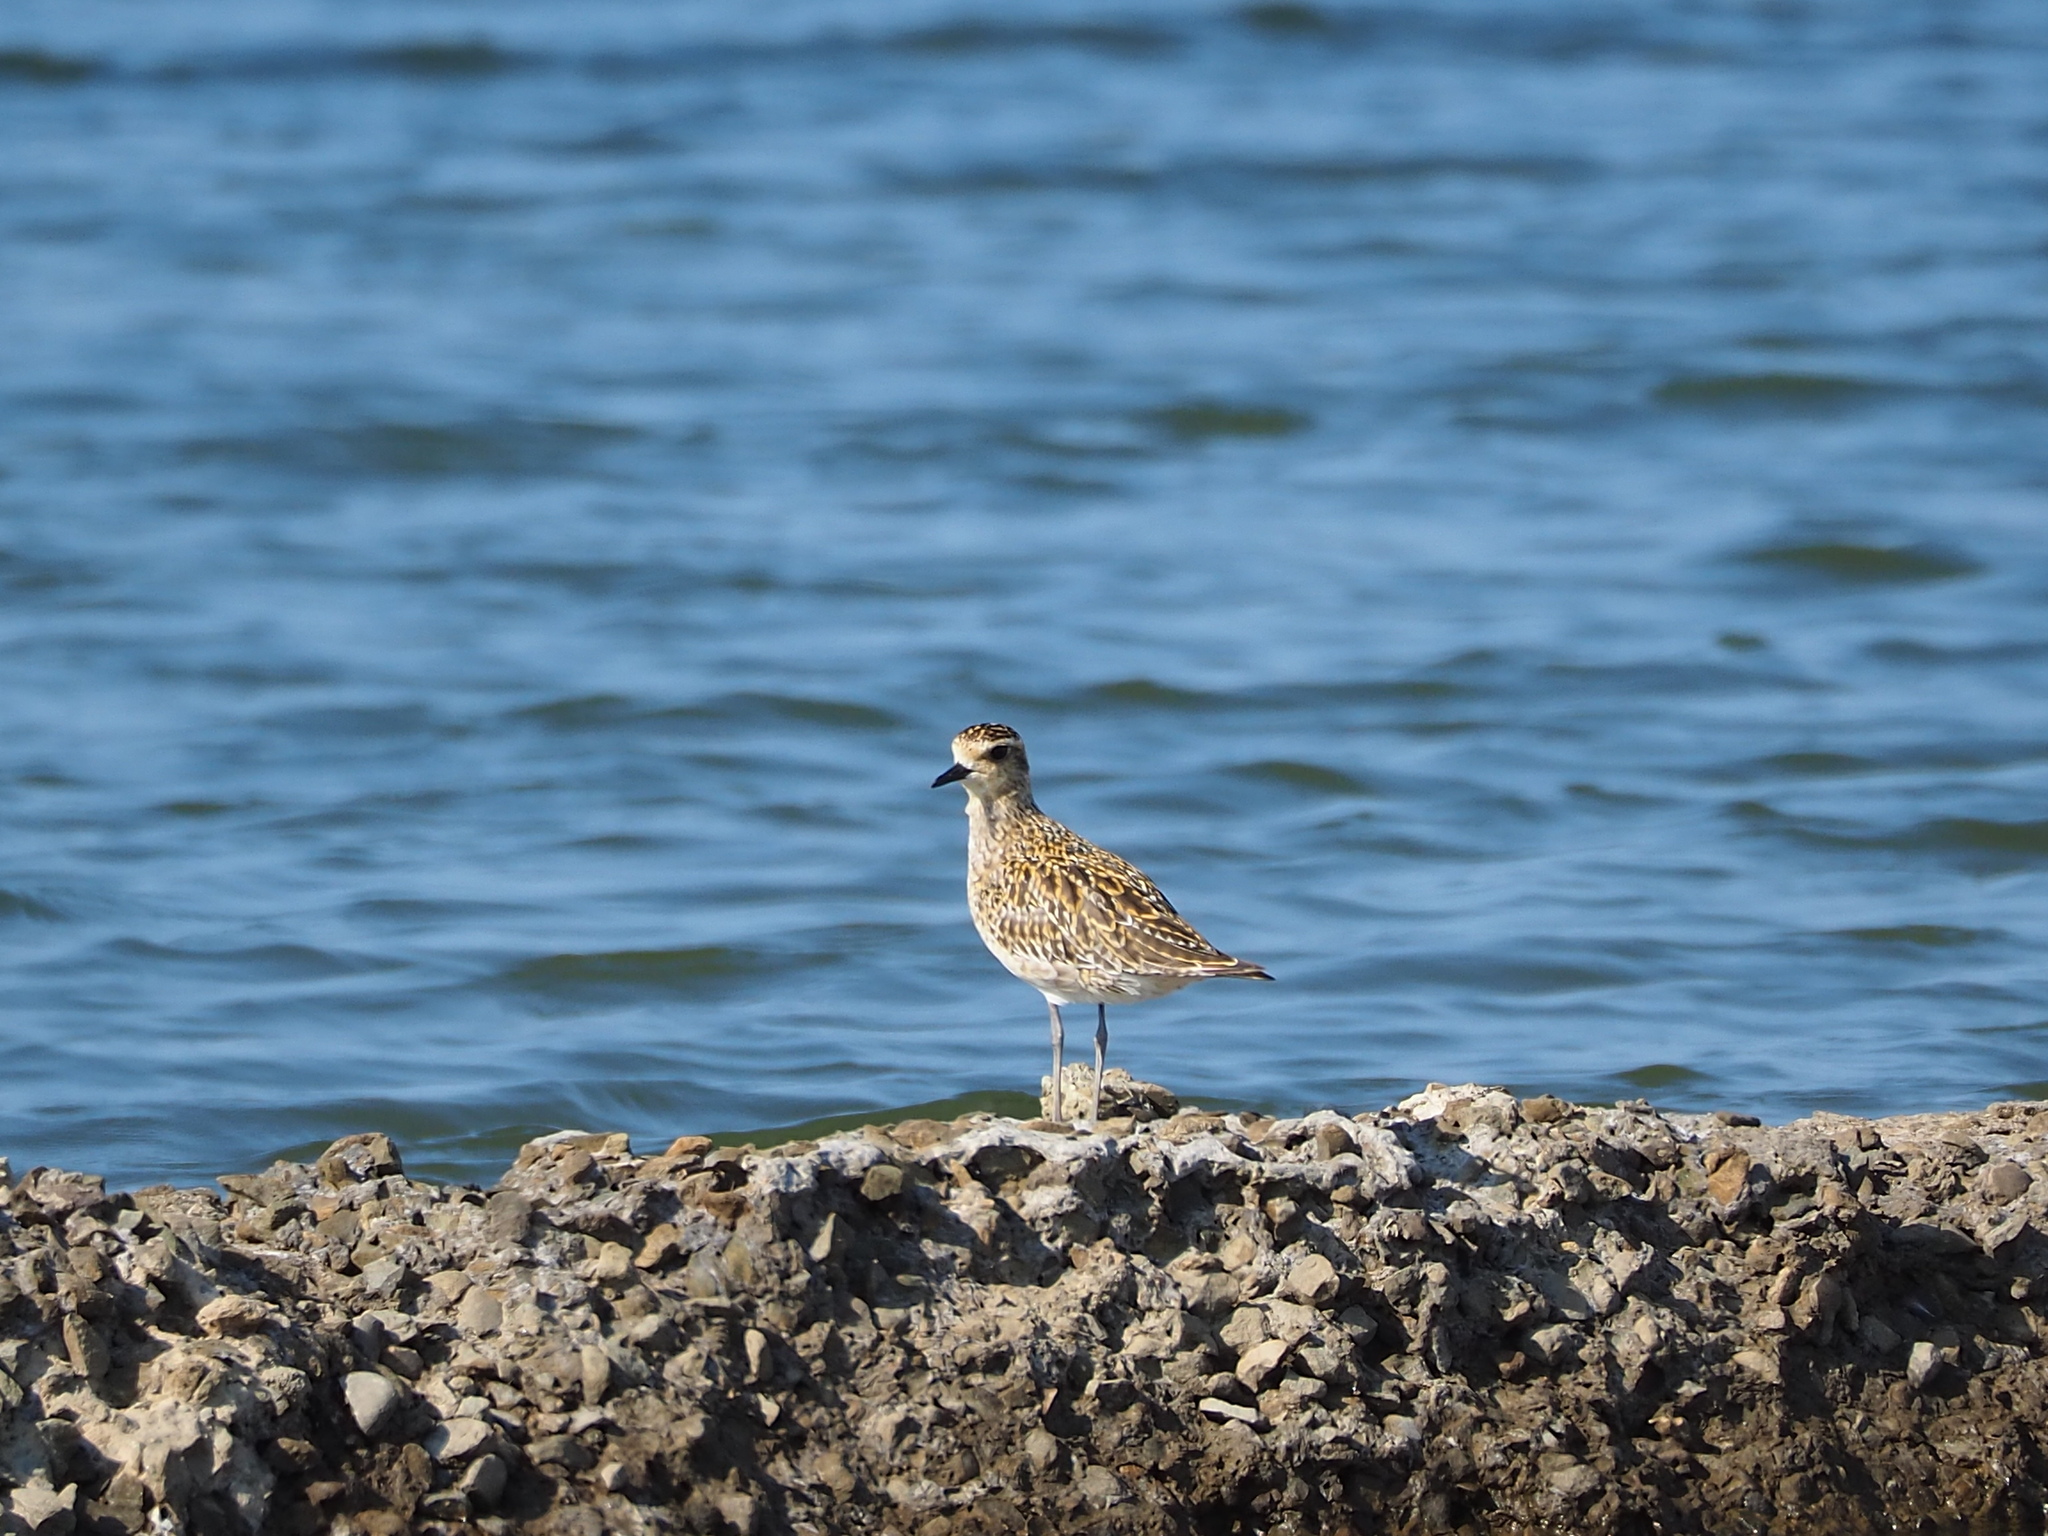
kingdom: Animalia
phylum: Chordata
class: Aves
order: Charadriiformes
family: Charadriidae
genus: Pluvialis
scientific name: Pluvialis fulva
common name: Pacific golden plover
